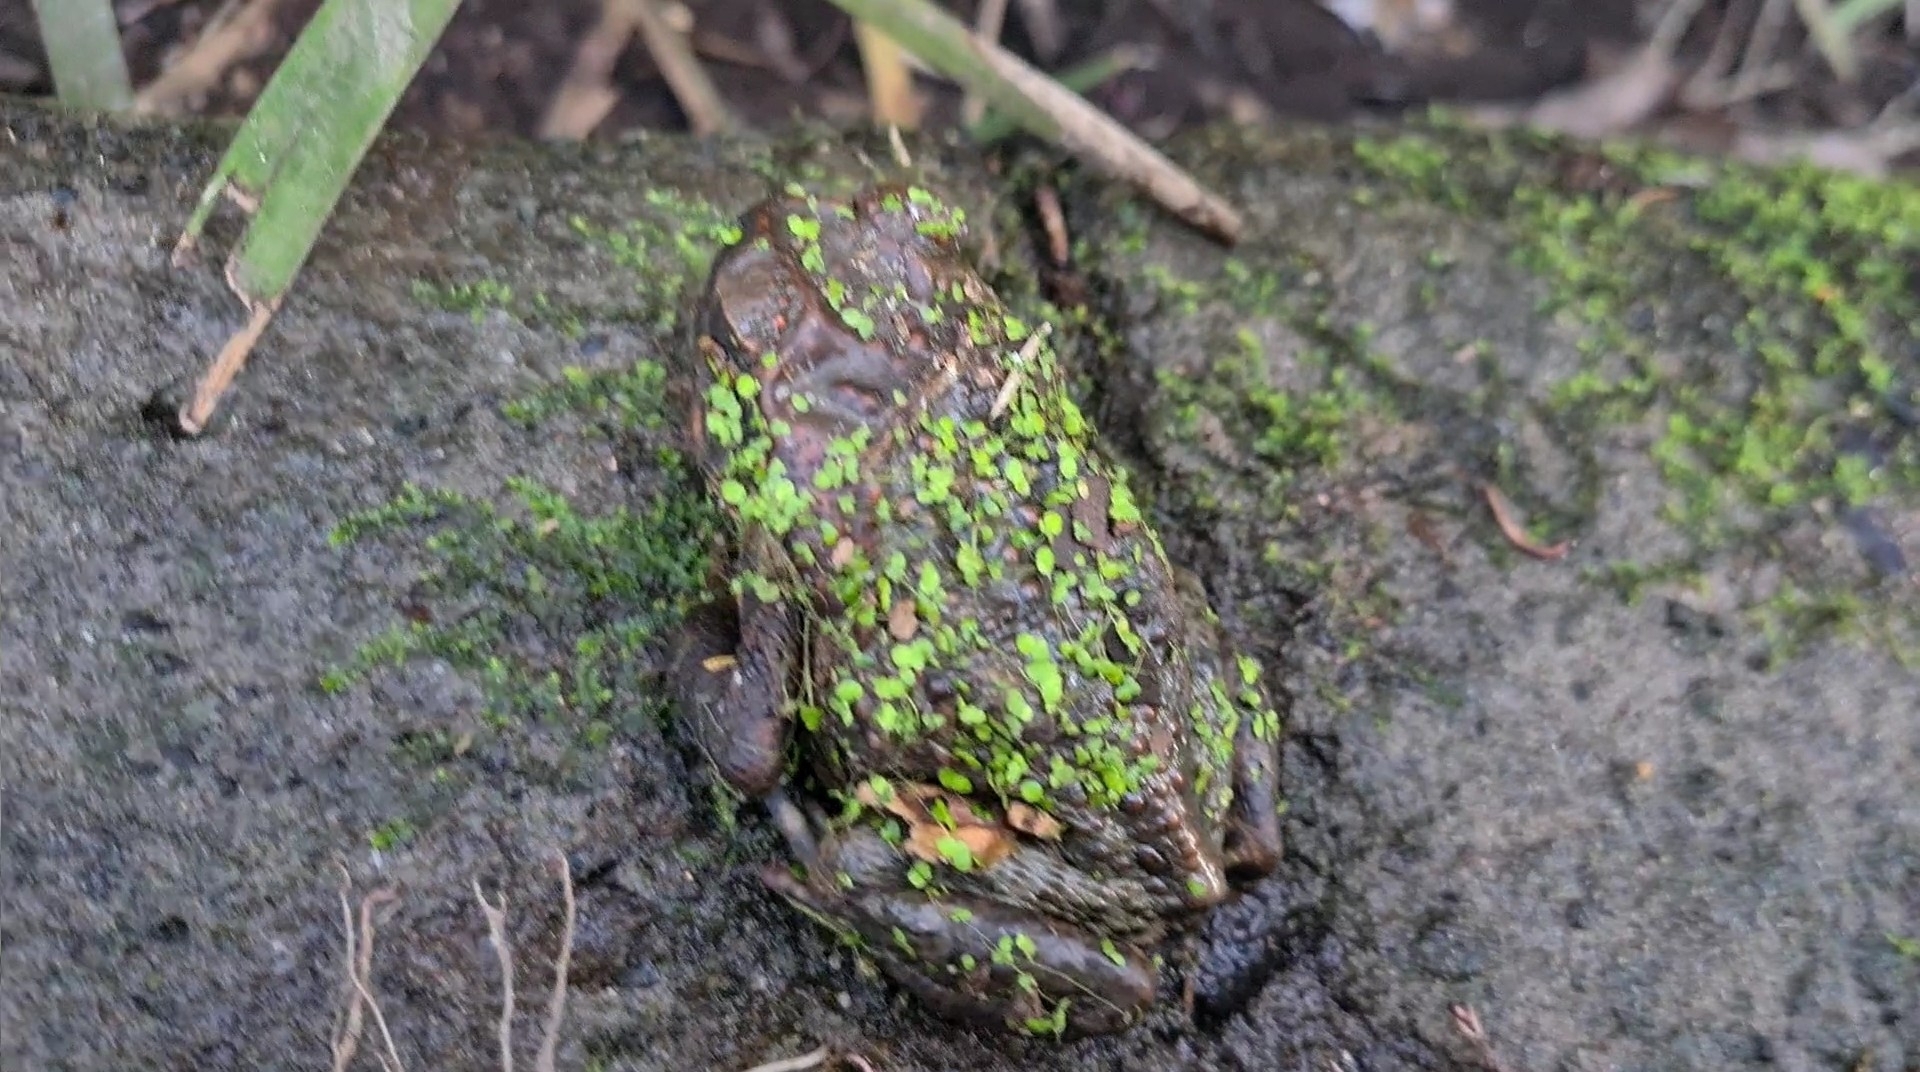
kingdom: Animalia
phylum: Chordata
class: Amphibia
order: Anura
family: Bufonidae
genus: Rhinella
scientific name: Rhinella marina
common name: Cane toad
